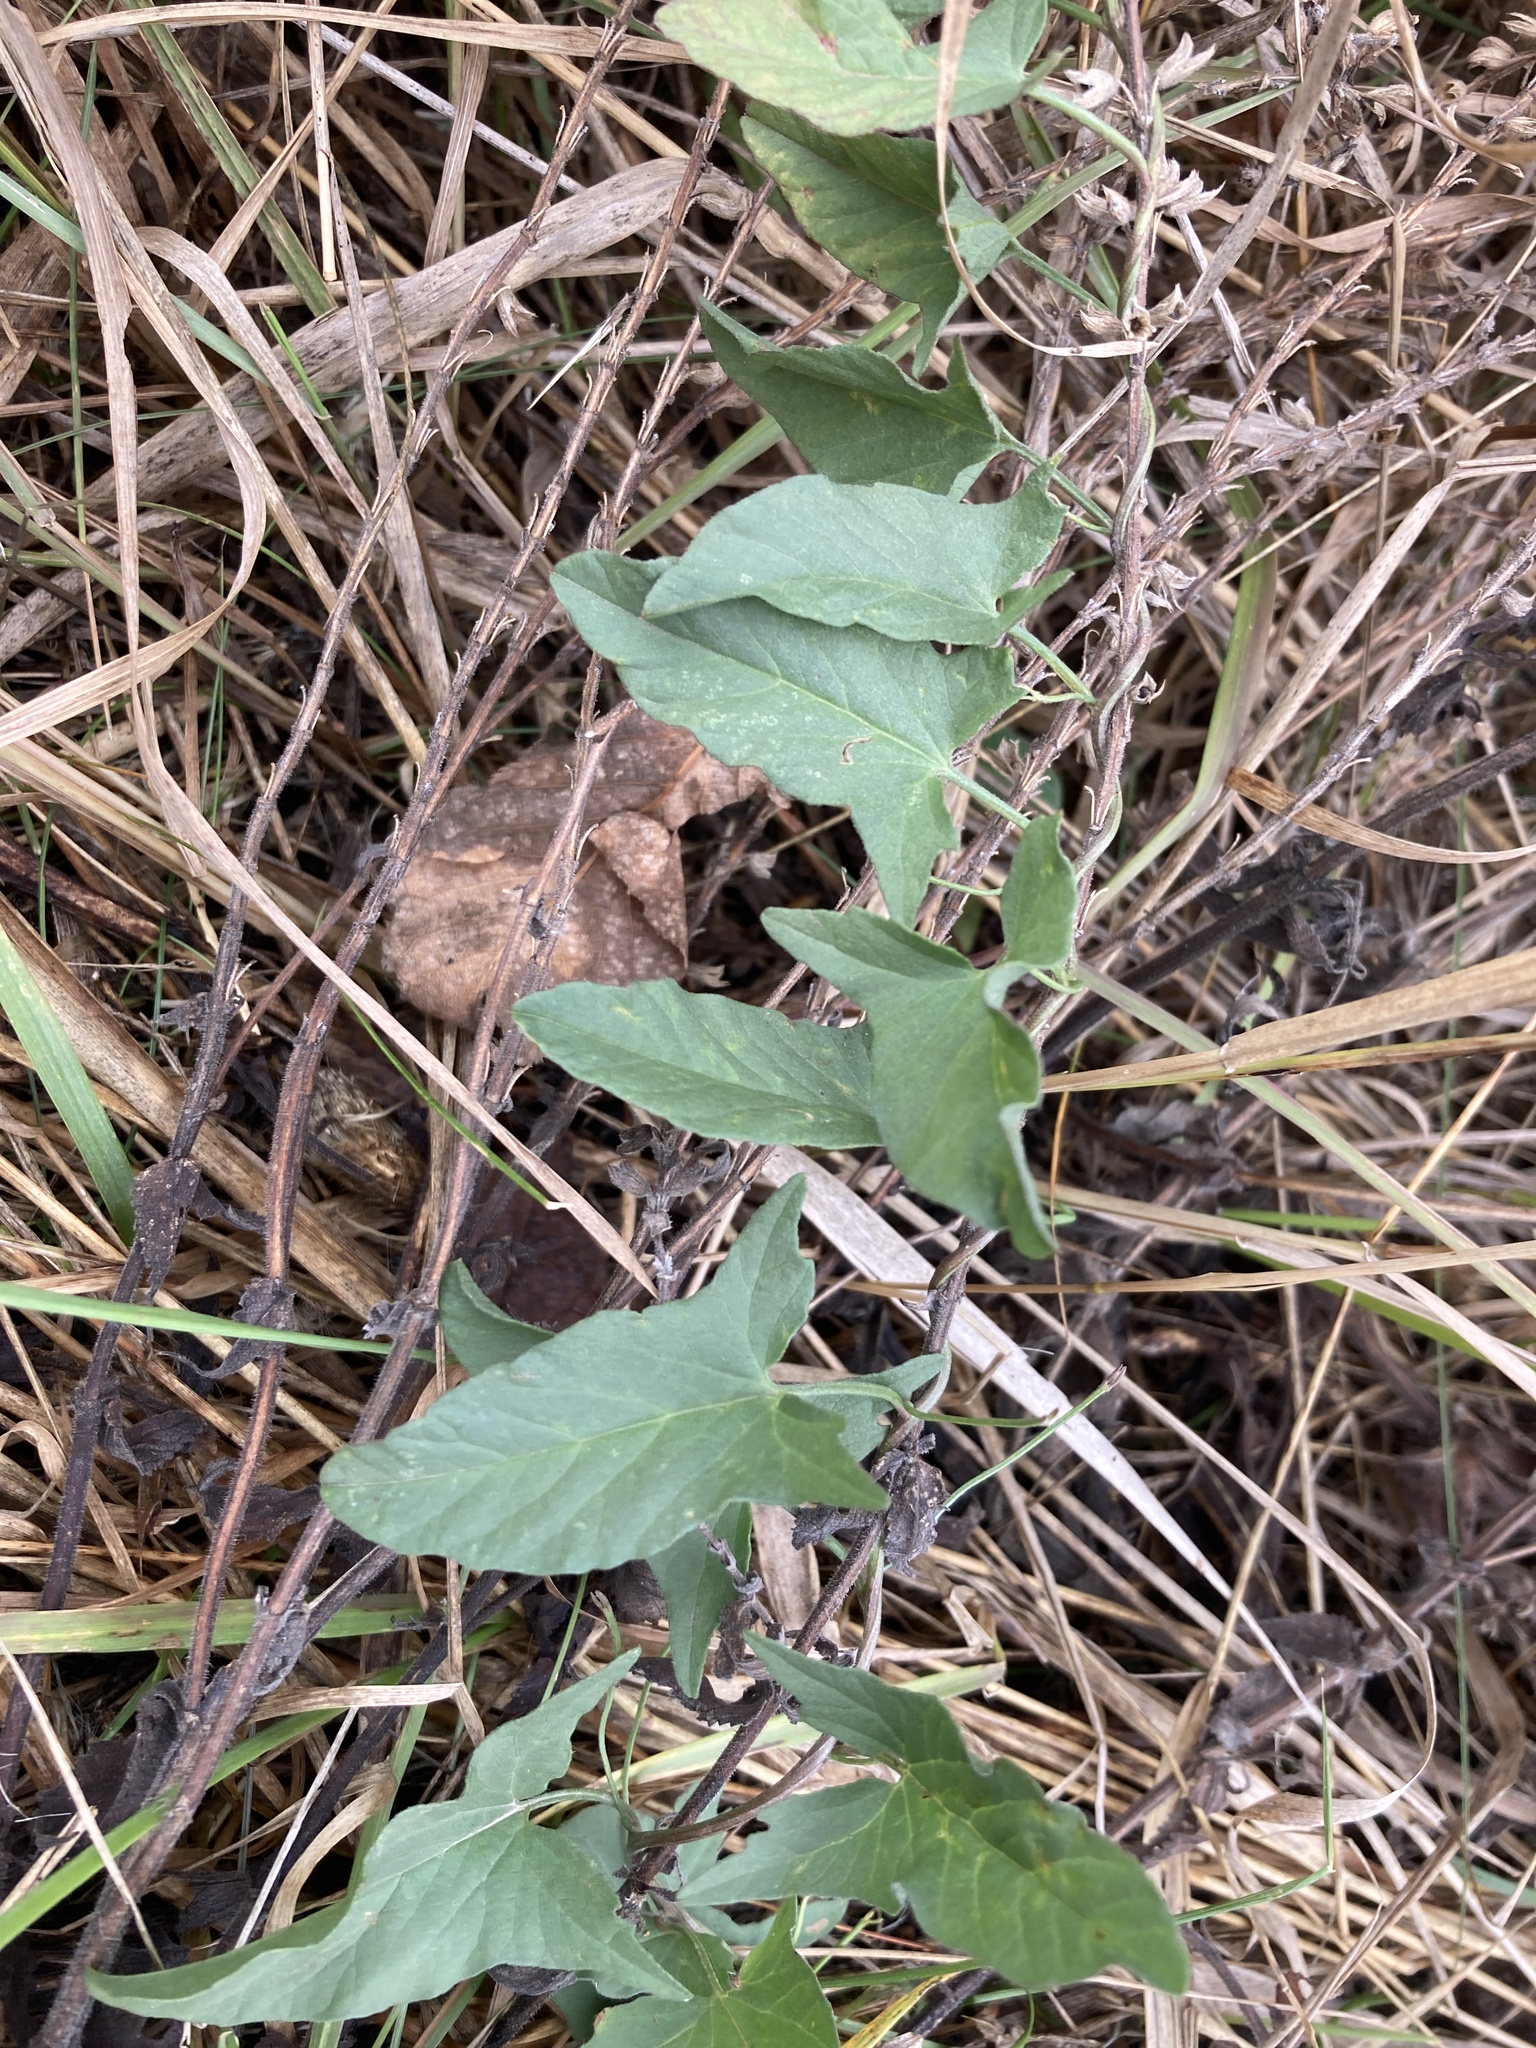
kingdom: Plantae
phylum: Tracheophyta
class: Magnoliopsida
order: Solanales
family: Convolvulaceae
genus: Convolvulus
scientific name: Convolvulus arvensis
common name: Field bindweed
